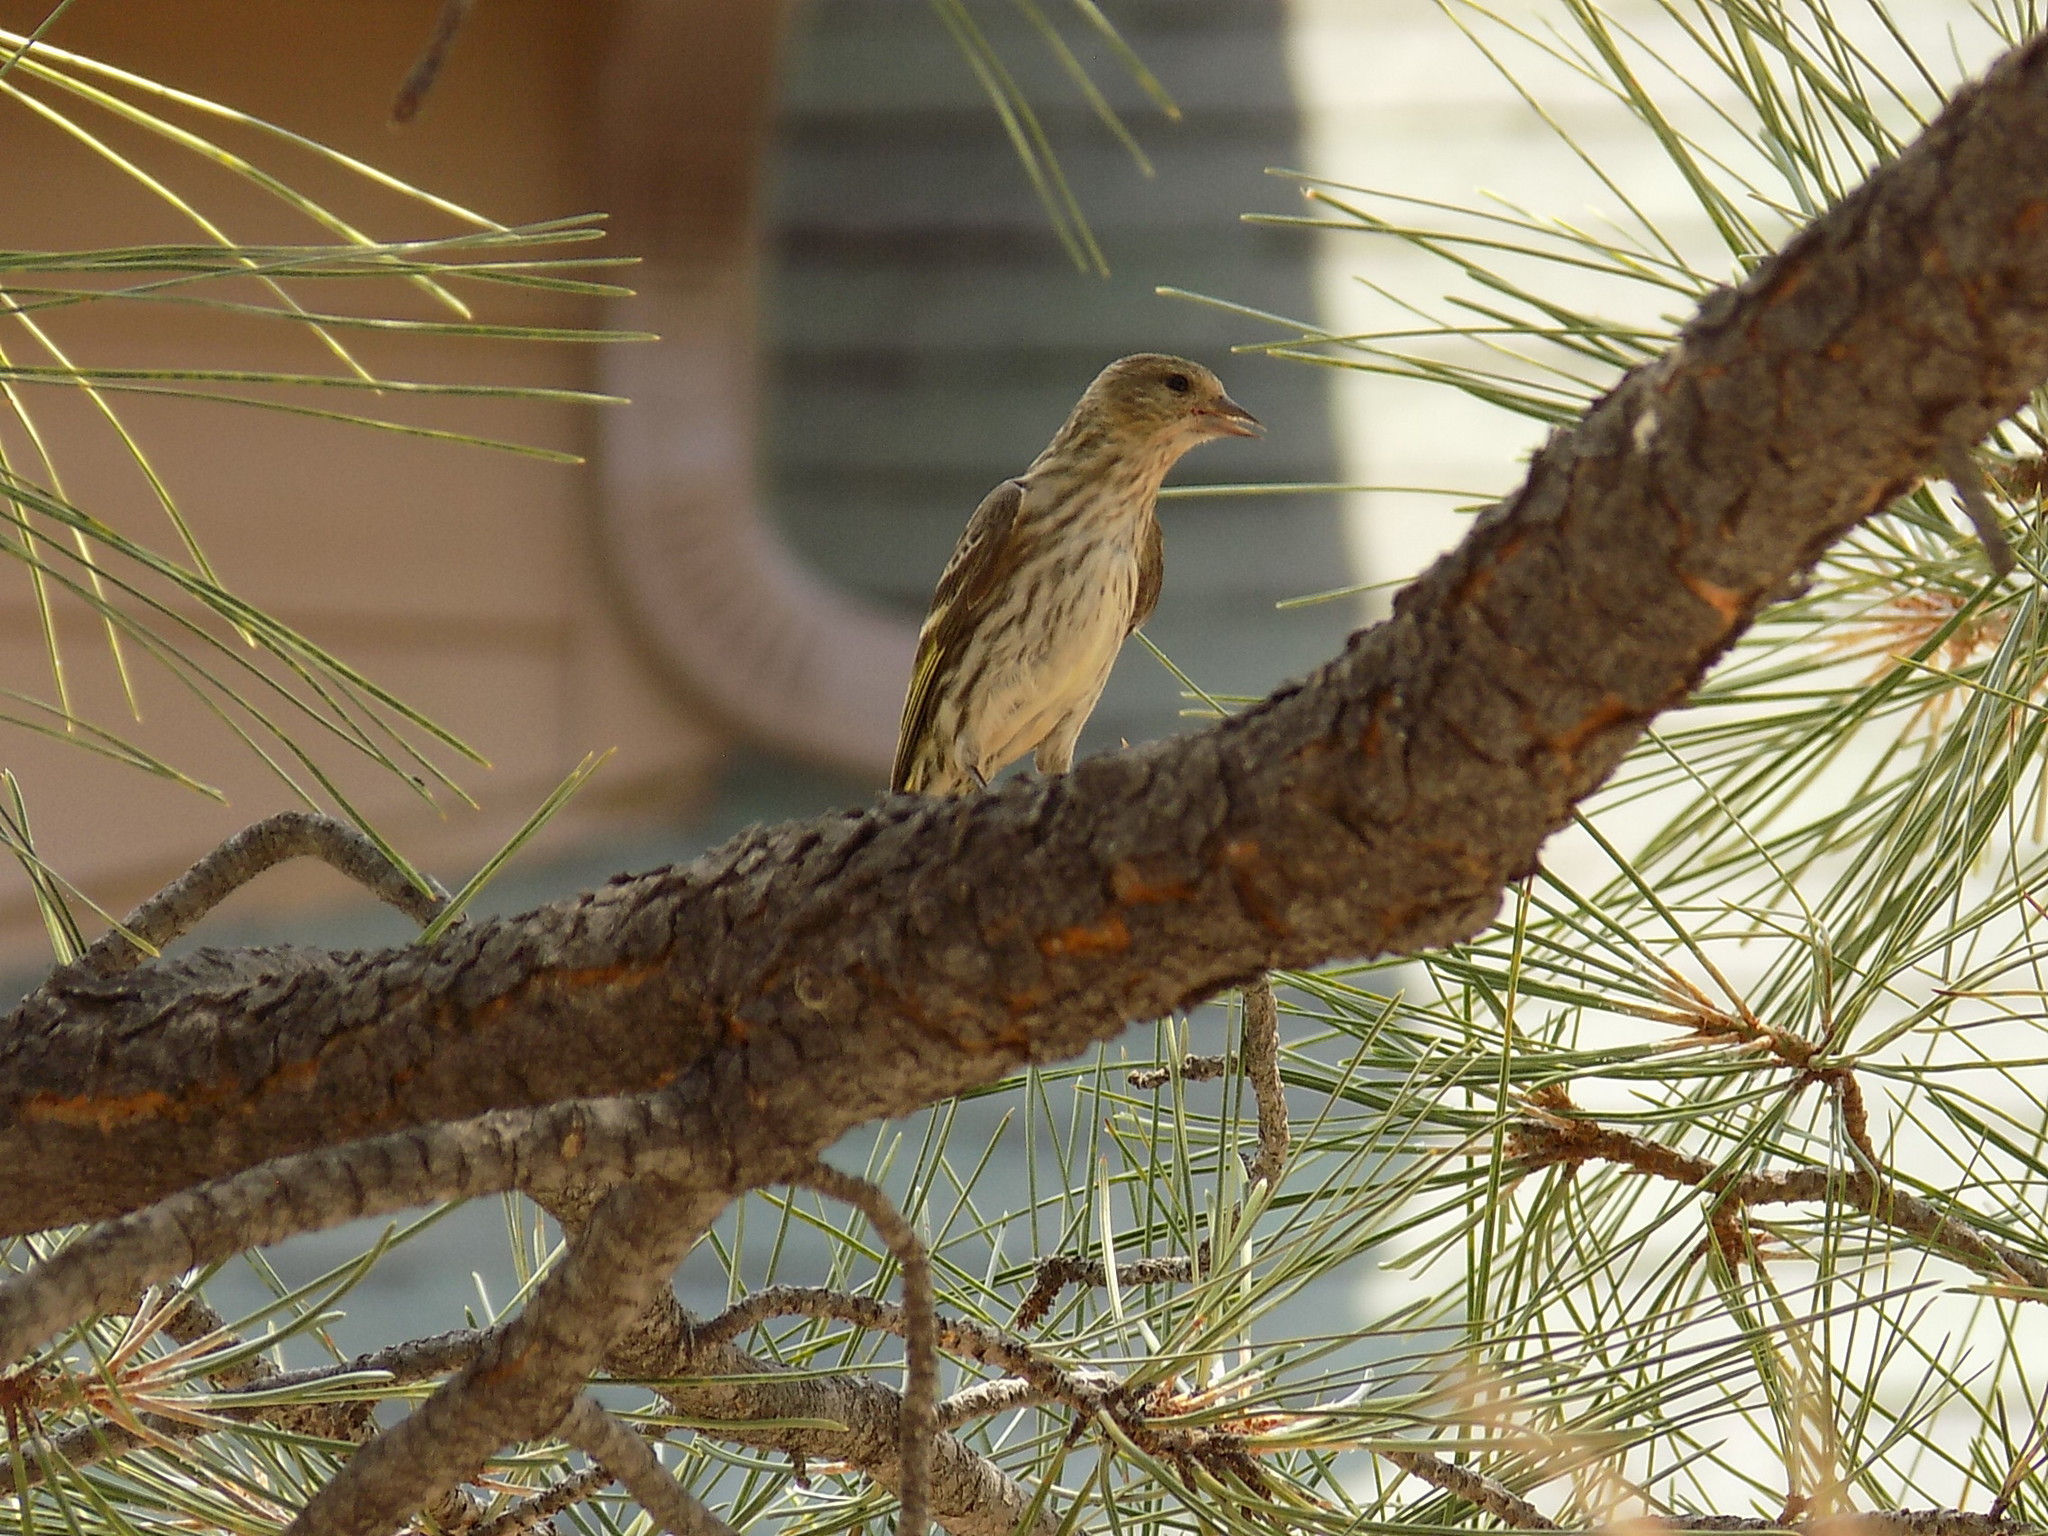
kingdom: Animalia
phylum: Chordata
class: Aves
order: Passeriformes
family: Fringillidae
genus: Spinus
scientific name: Spinus pinus
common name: Pine siskin
